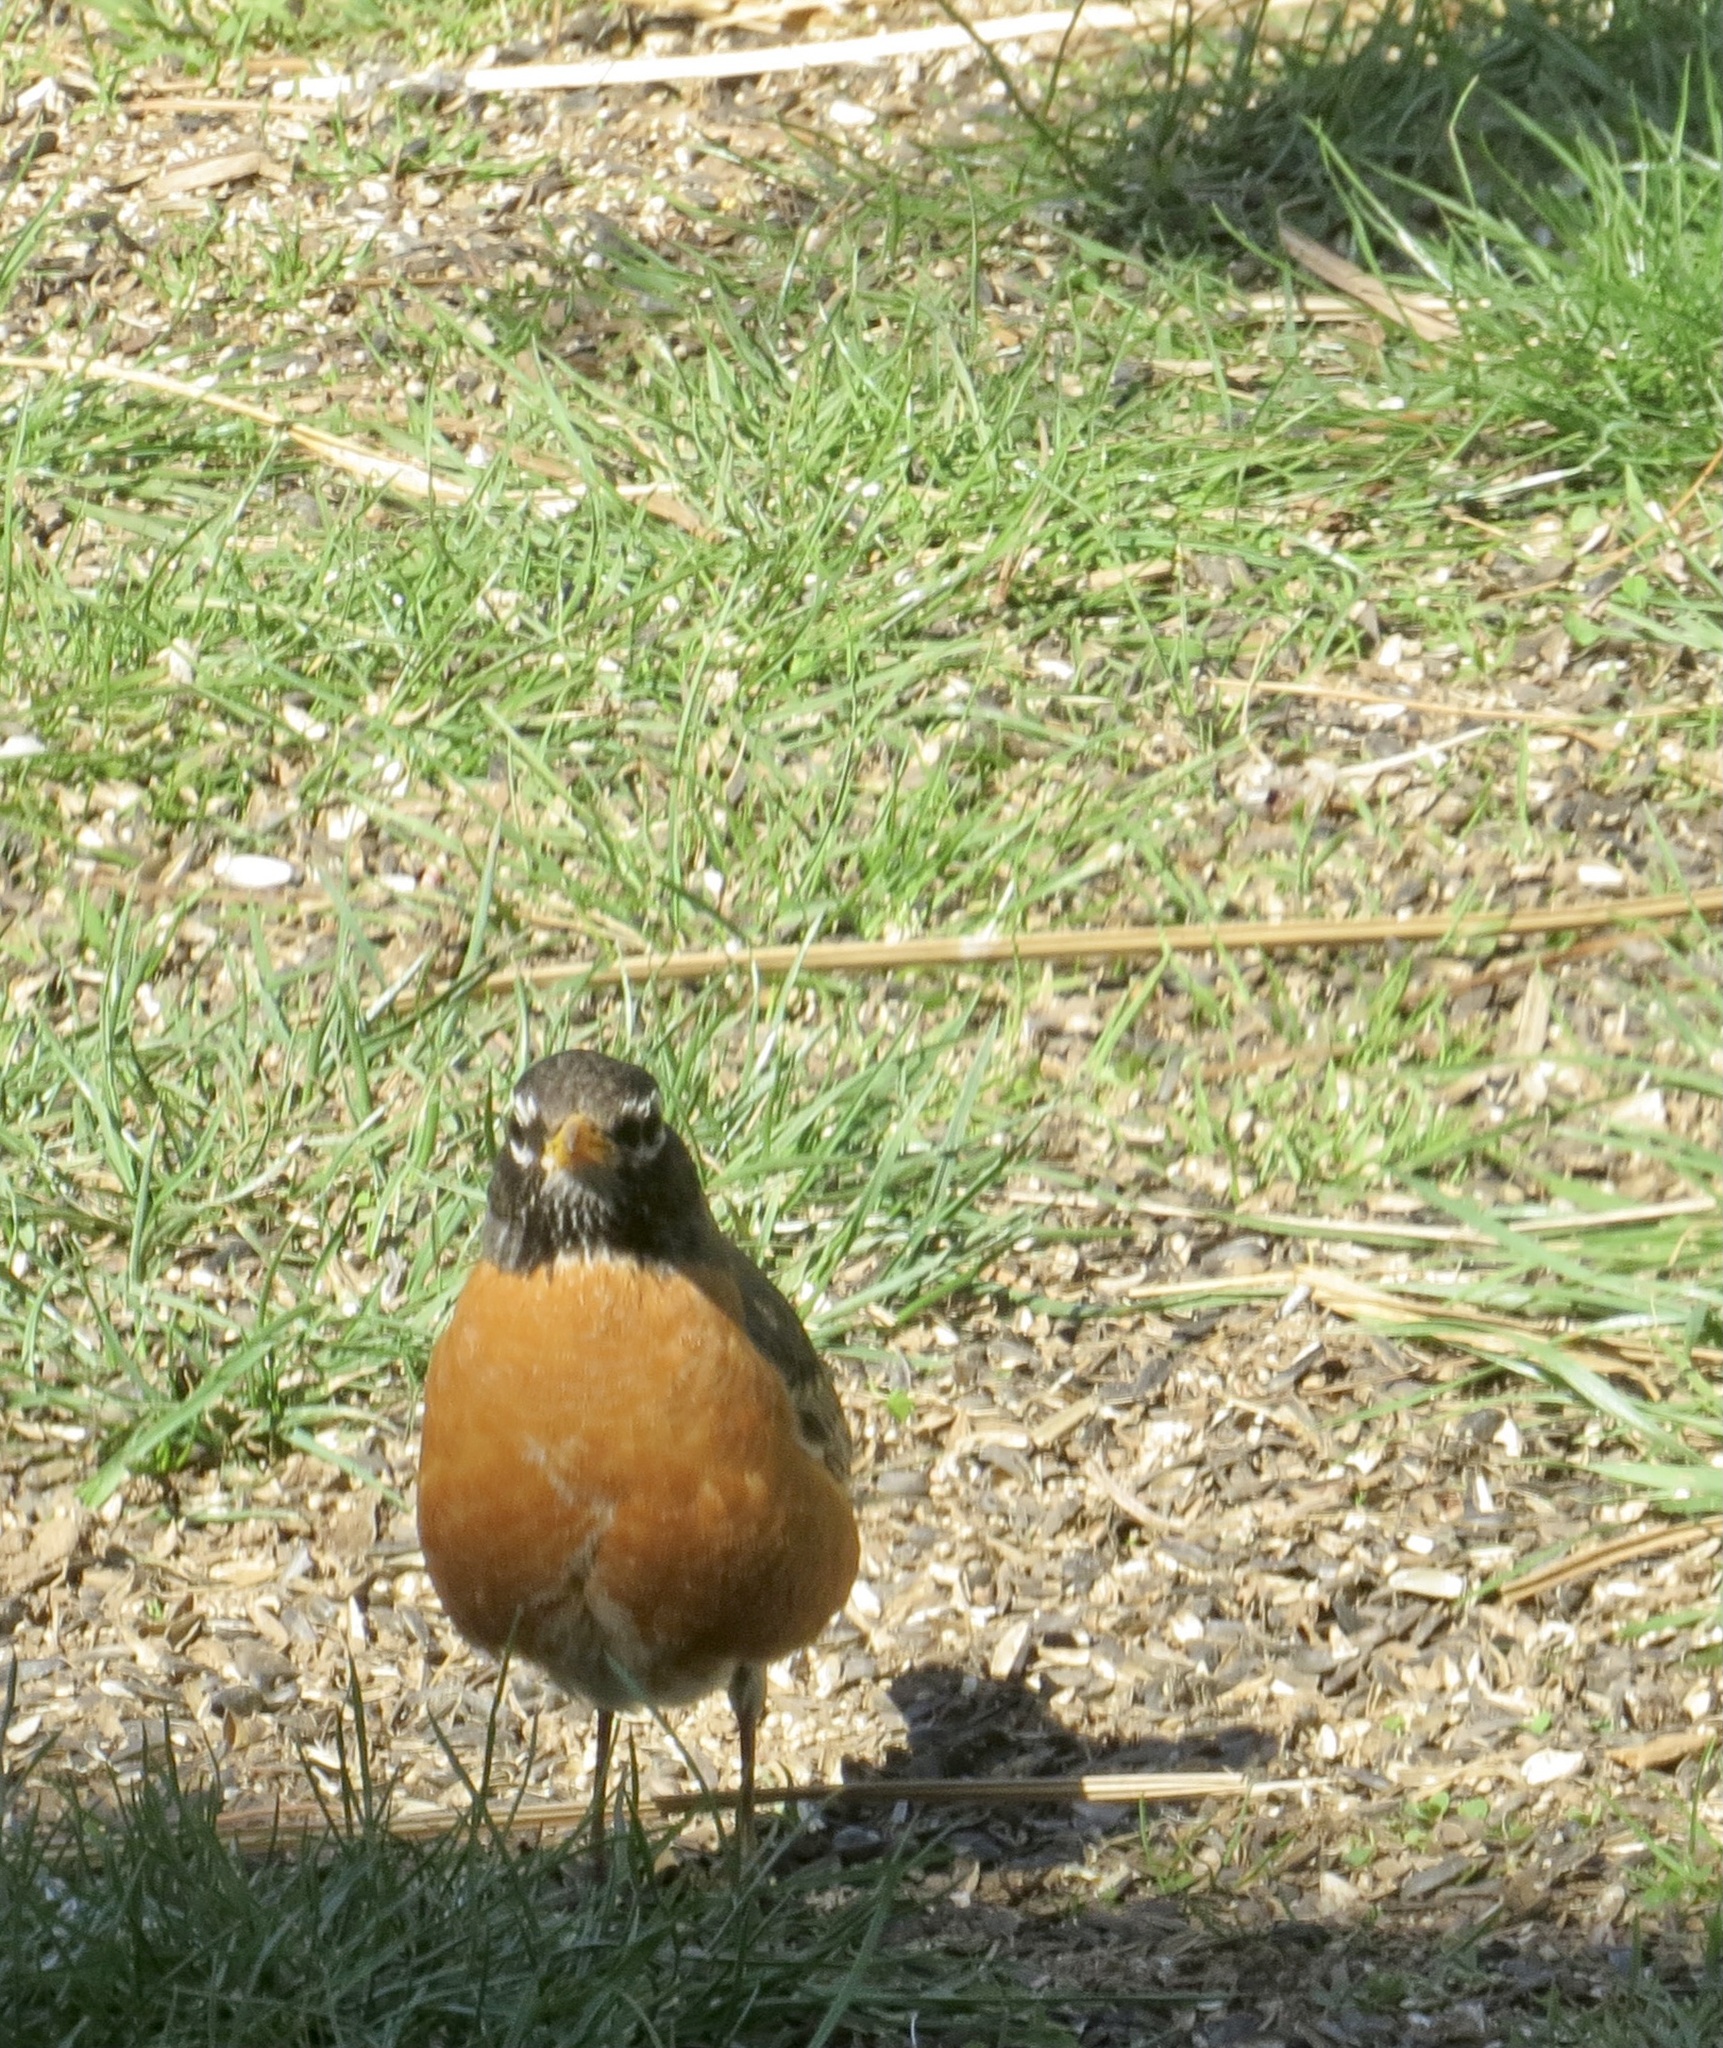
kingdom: Animalia
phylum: Chordata
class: Aves
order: Passeriformes
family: Turdidae
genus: Turdus
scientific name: Turdus migratorius
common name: American robin
